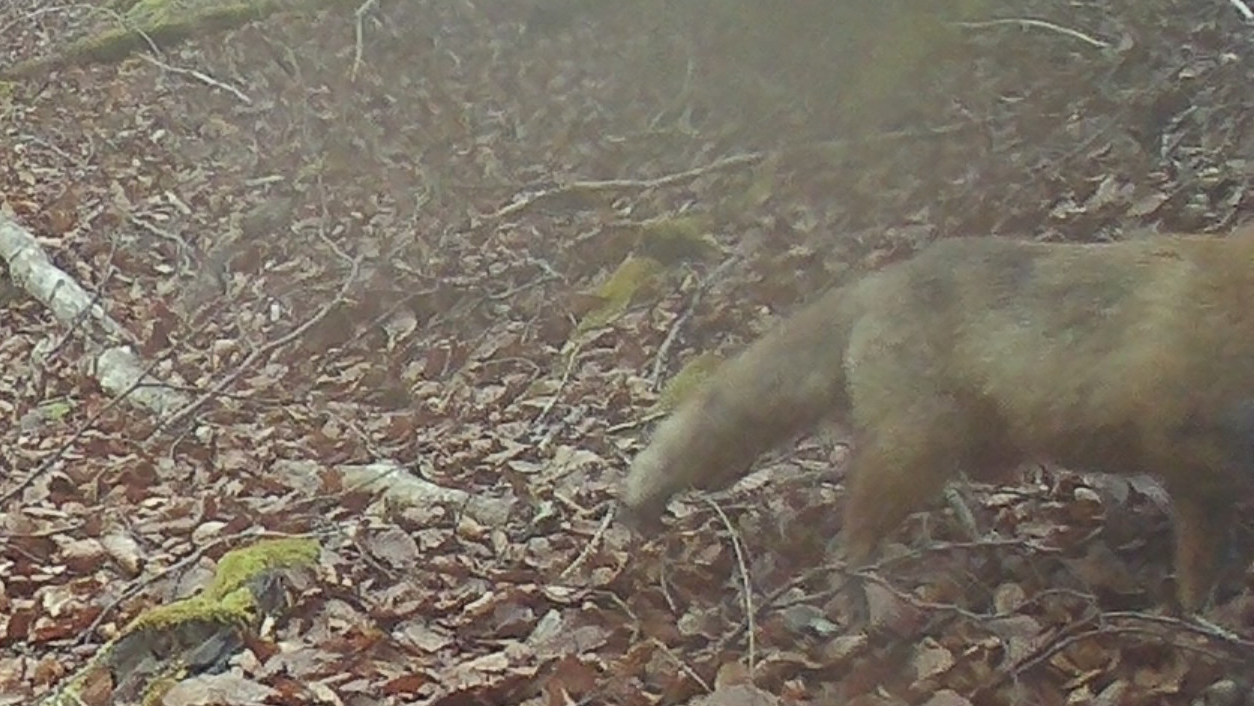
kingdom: Animalia
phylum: Chordata
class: Mammalia
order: Carnivora
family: Canidae
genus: Vulpes
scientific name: Vulpes vulpes
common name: Red fox
